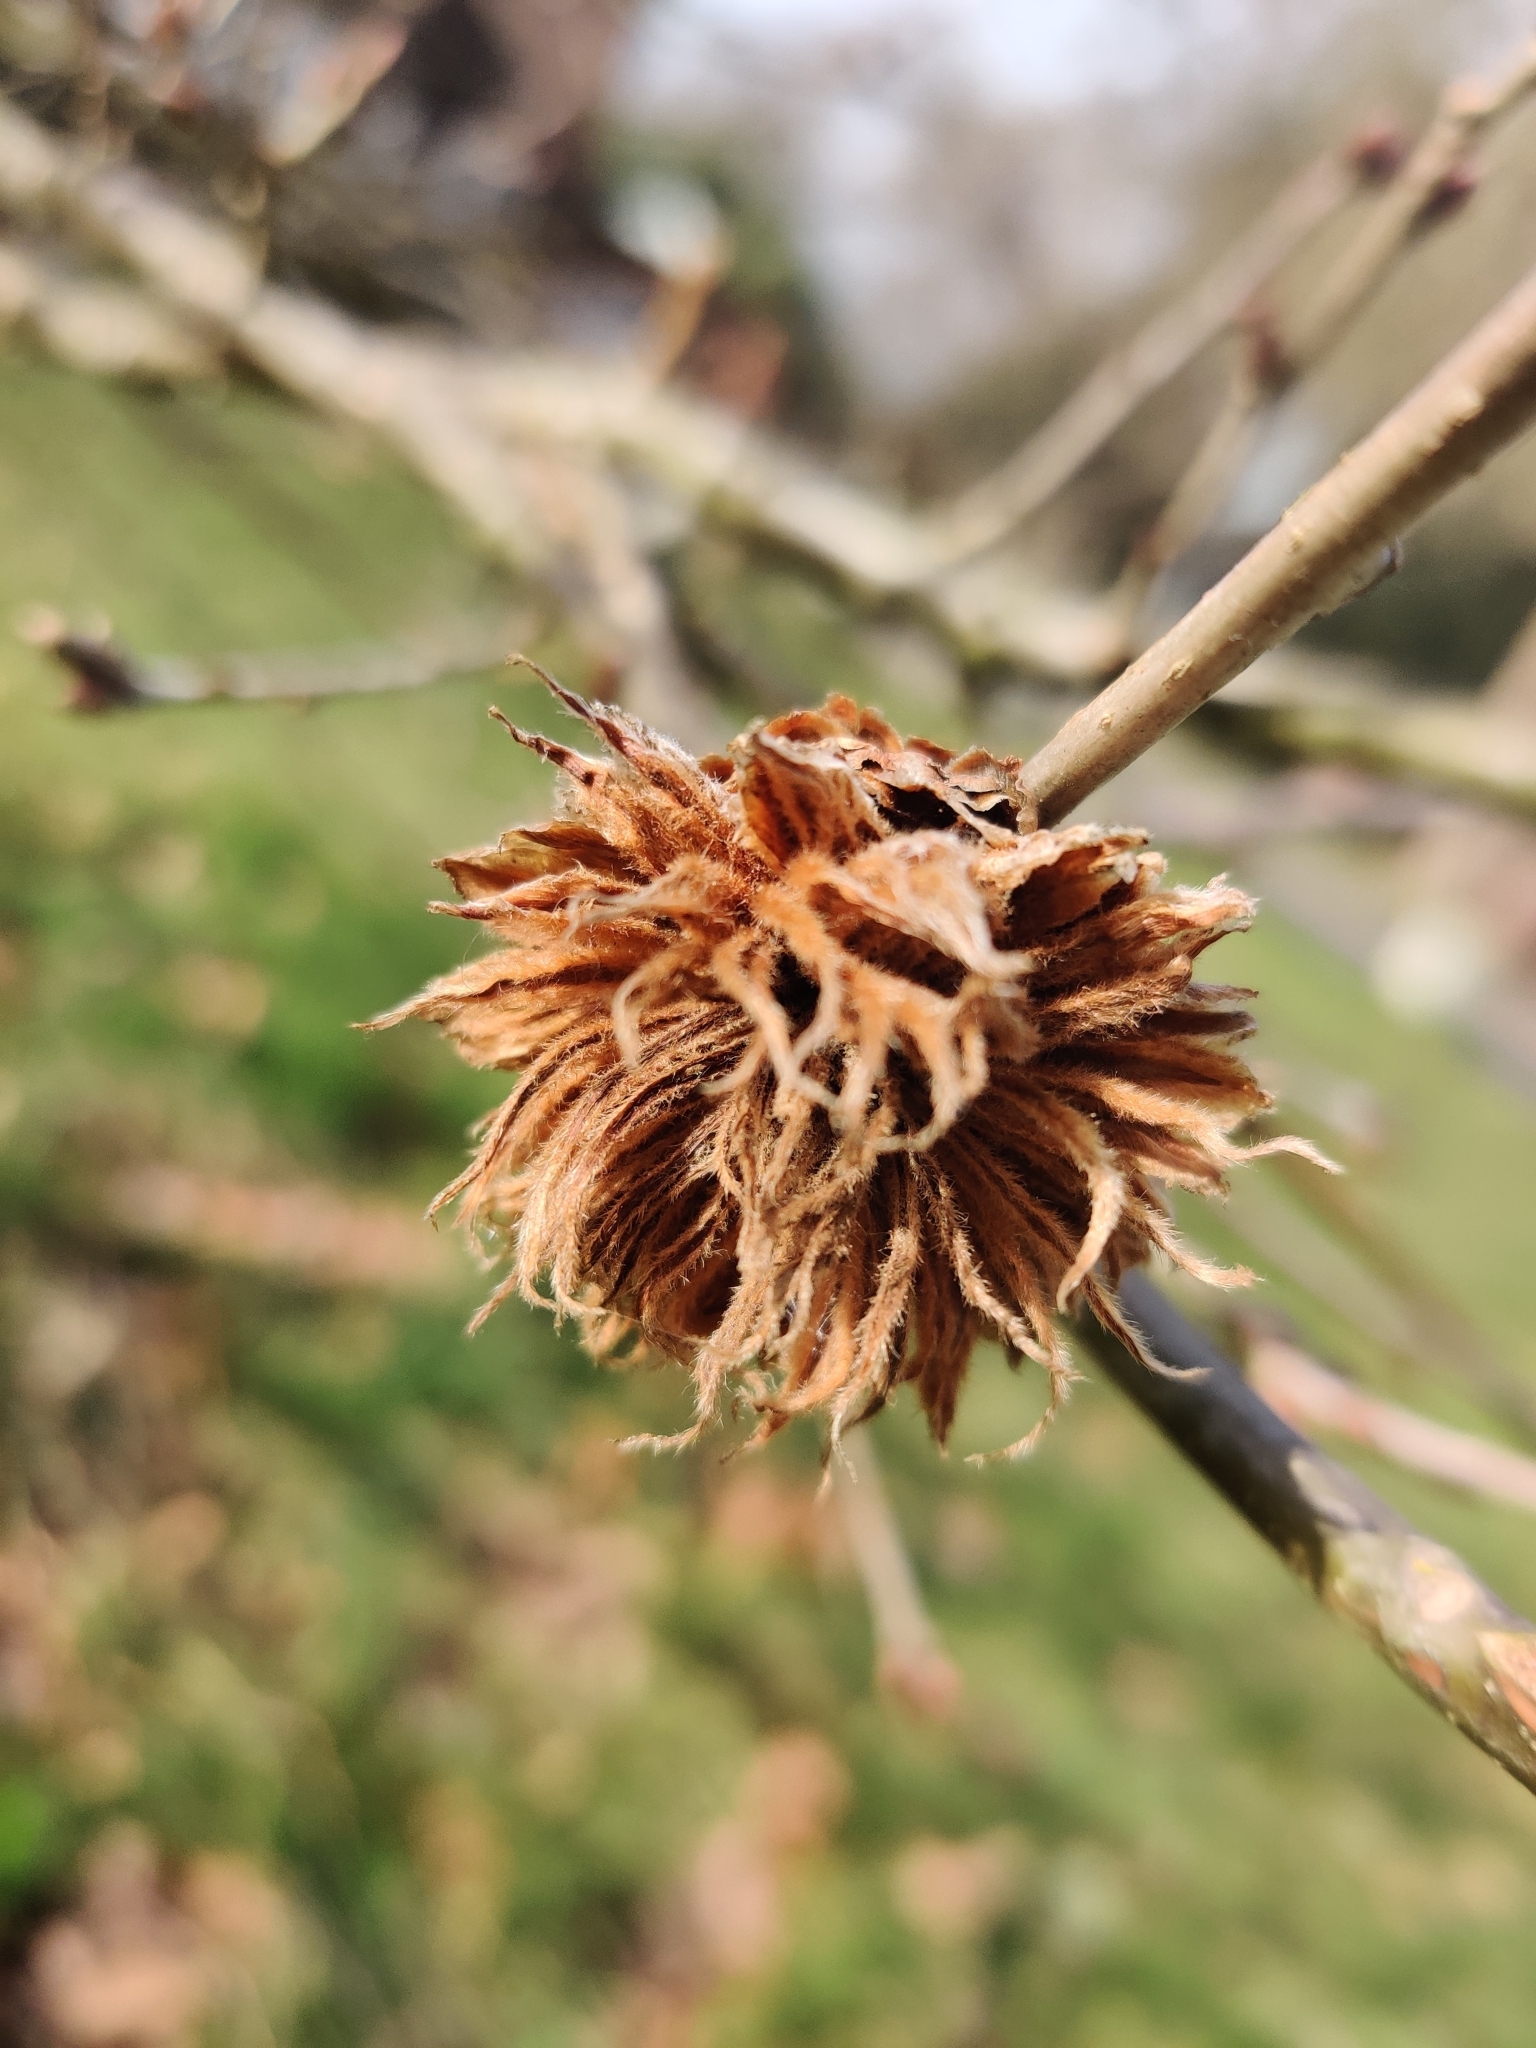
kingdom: Animalia
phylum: Arthropoda
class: Insecta
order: Hymenoptera
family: Cynipidae
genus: Andricus
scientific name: Andricus foecundatrix
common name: Artichoke gall
